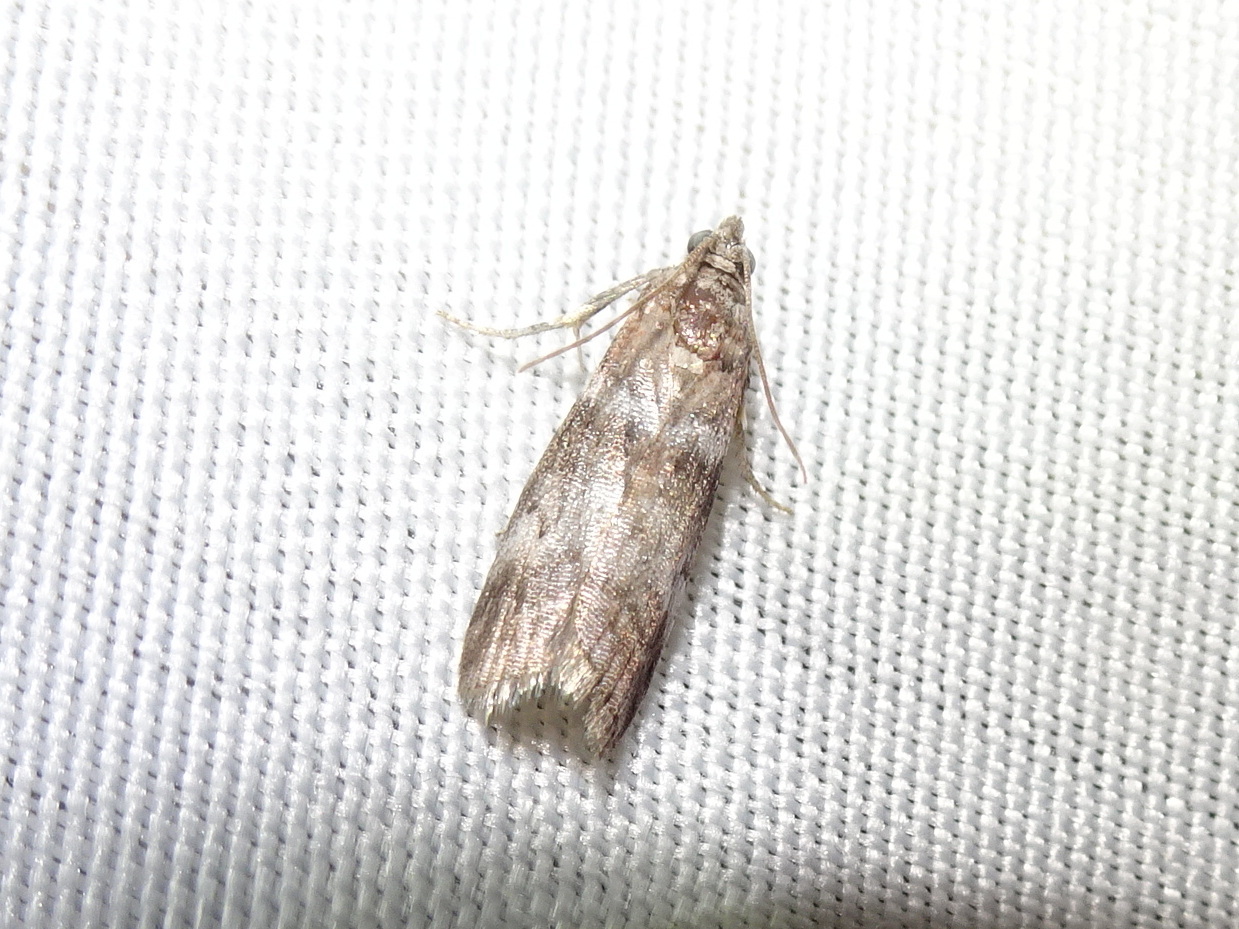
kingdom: Animalia
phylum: Arthropoda
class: Insecta
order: Lepidoptera
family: Pyralidae
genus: Sciota
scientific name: Sciota uvinella
